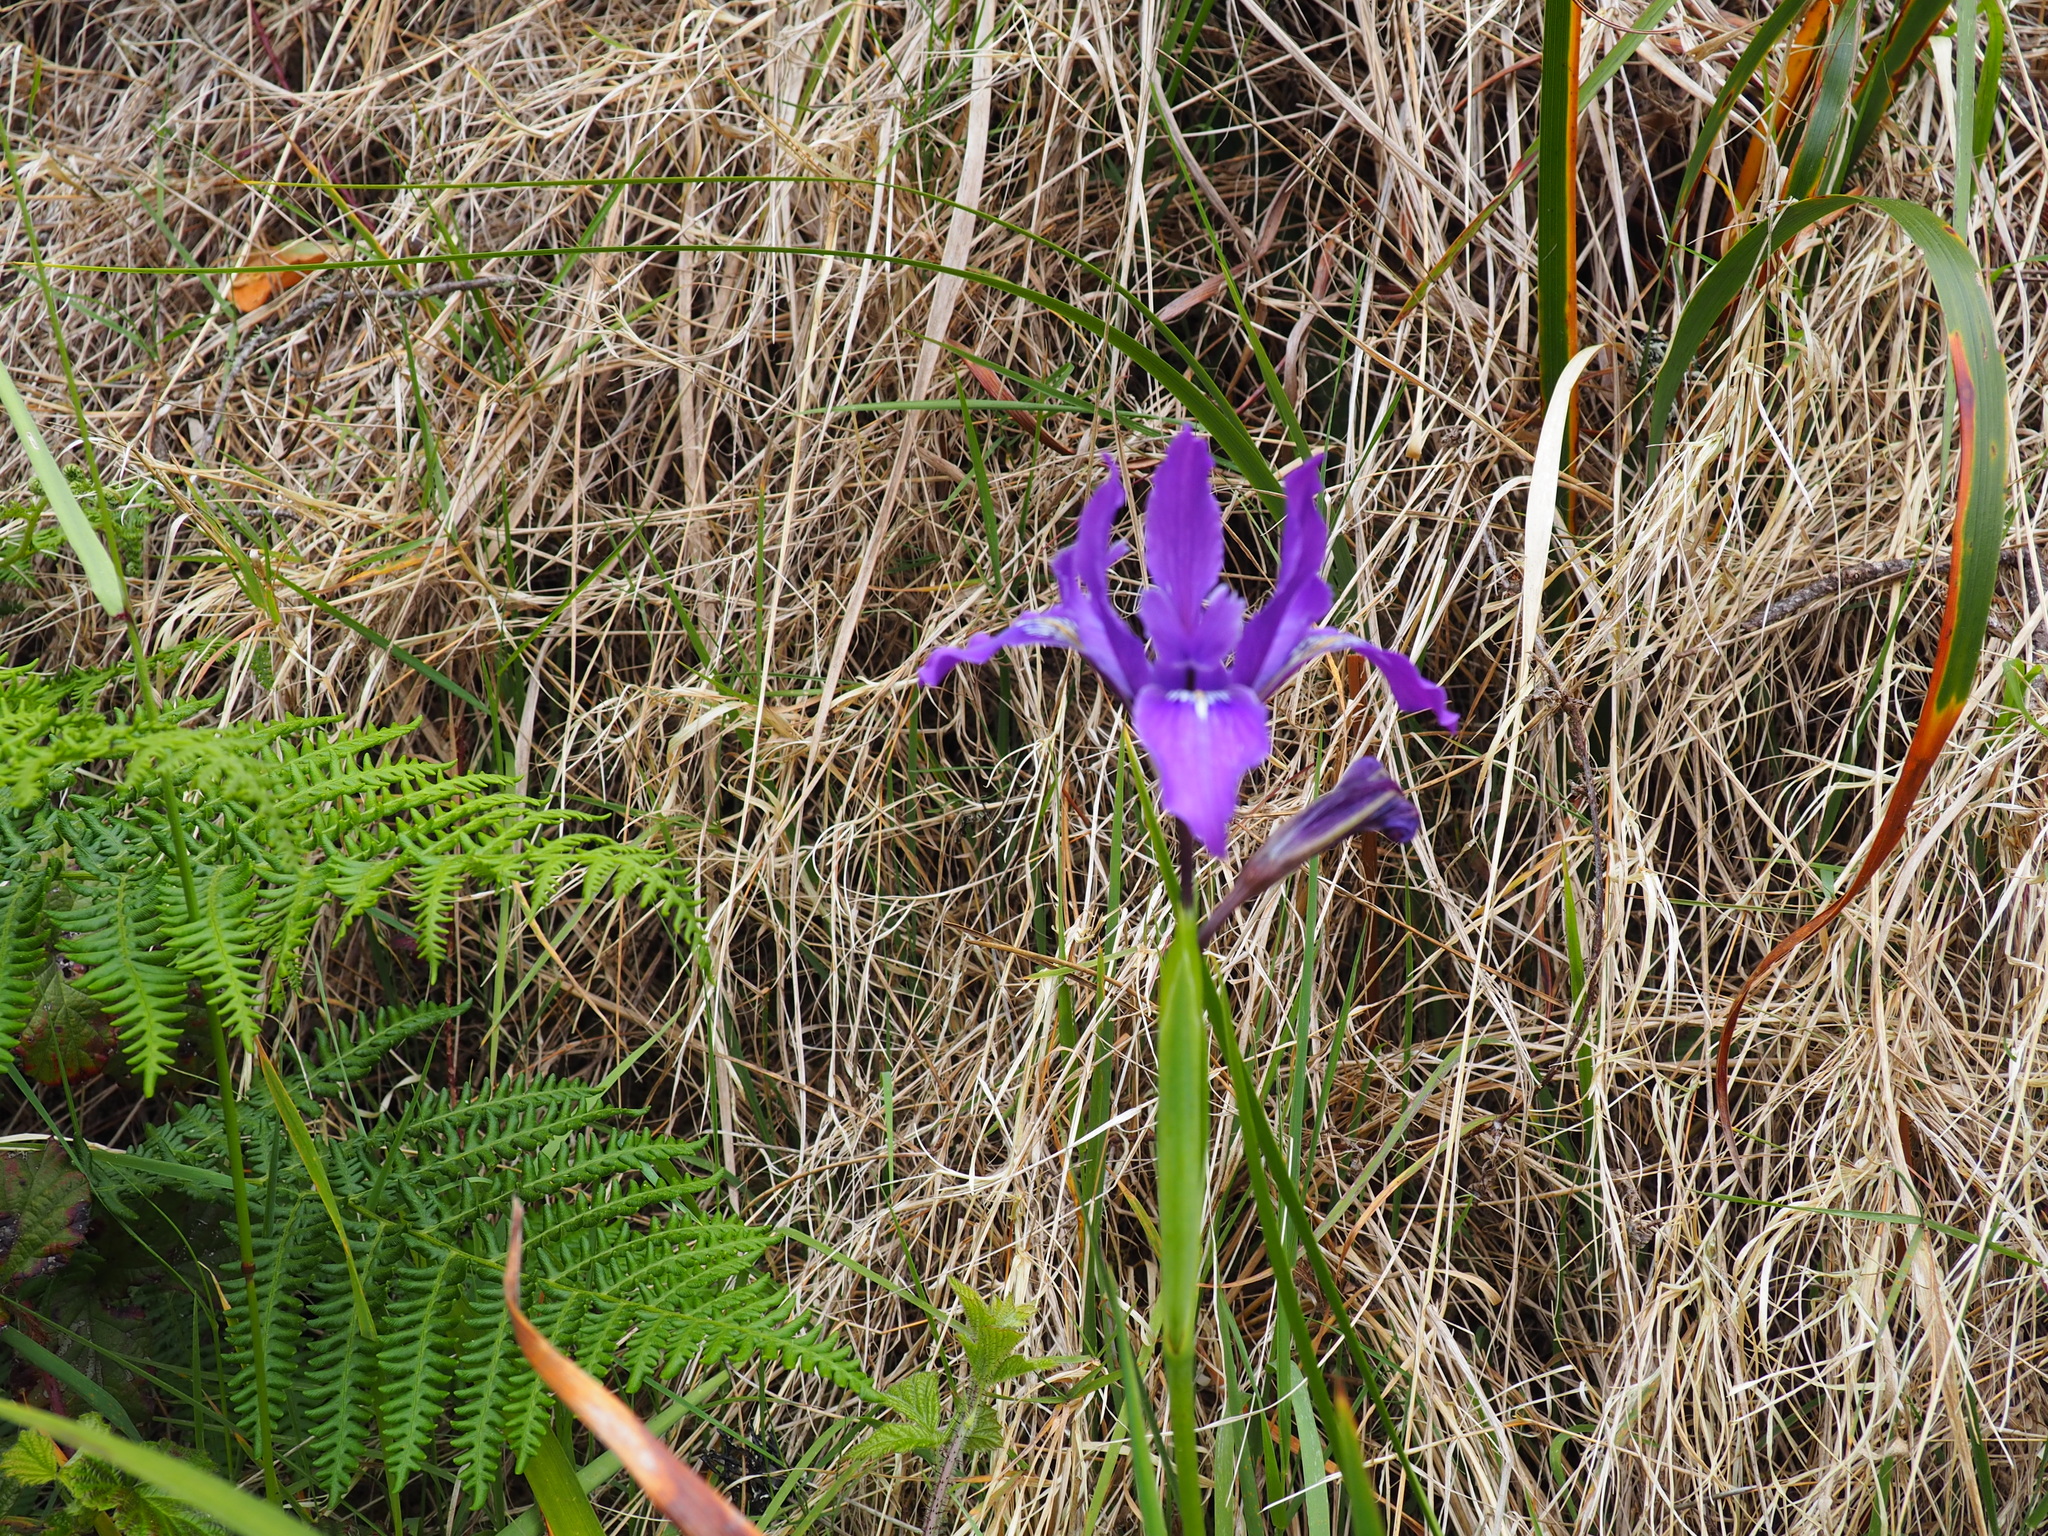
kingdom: Plantae
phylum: Tracheophyta
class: Liliopsida
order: Asparagales
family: Iridaceae
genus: Iris
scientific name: Iris douglasiana
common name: Marin iris
